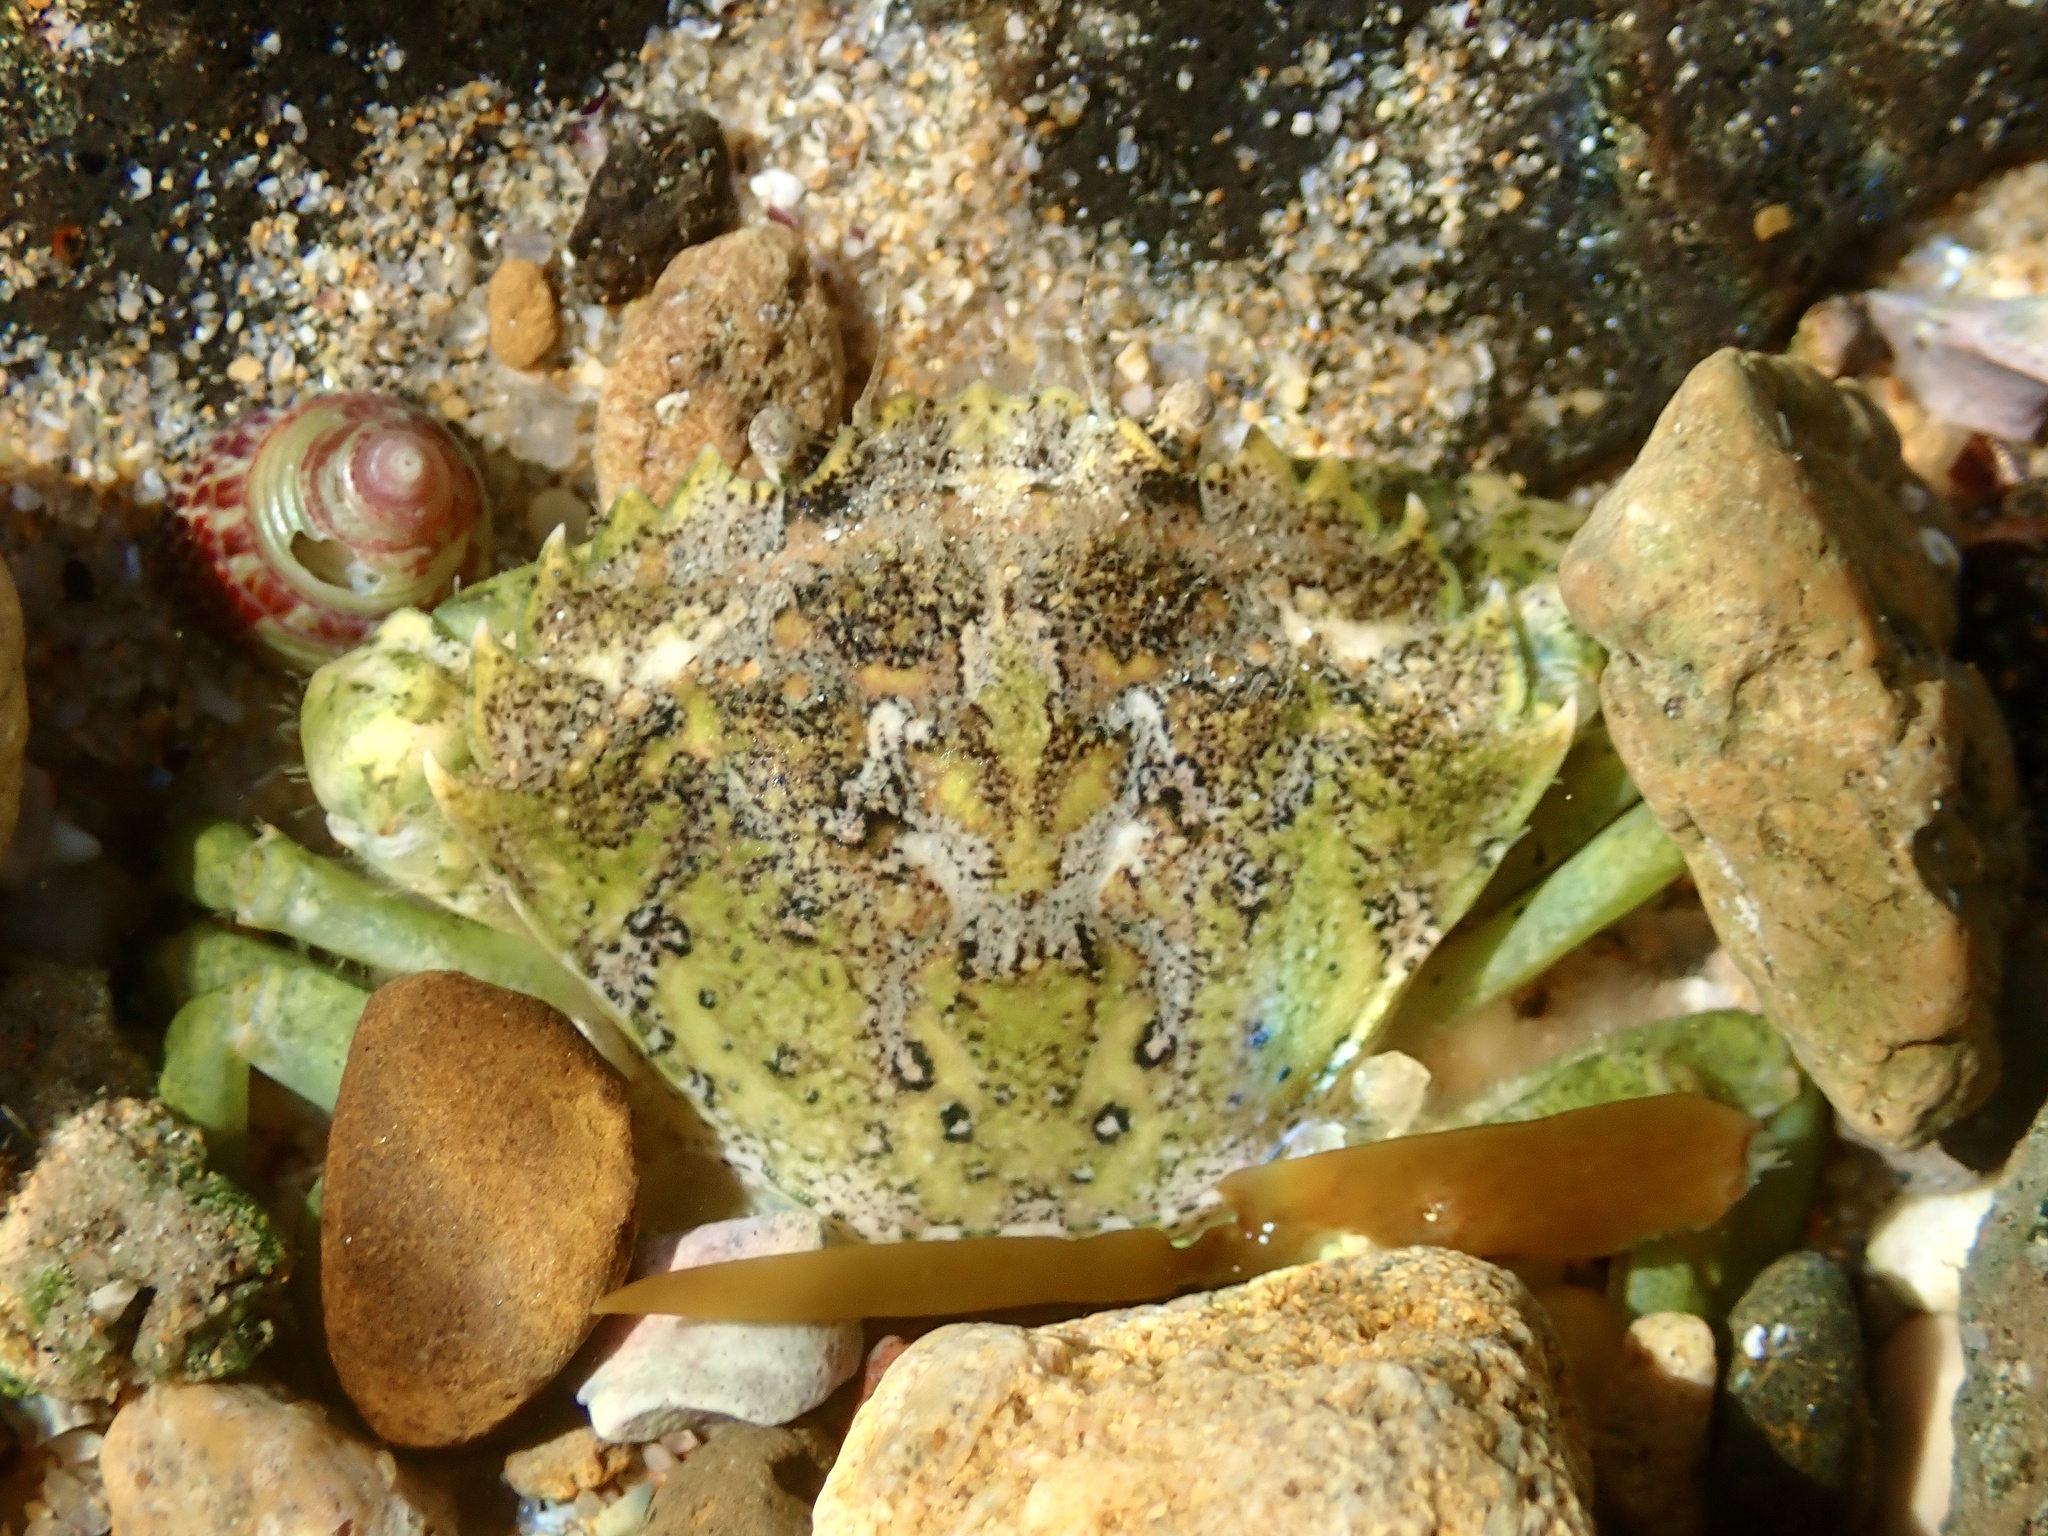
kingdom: Animalia
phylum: Arthropoda
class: Malacostraca
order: Decapoda
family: Carcinidae
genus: Carcinus
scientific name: Carcinus maenas
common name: European green crab
